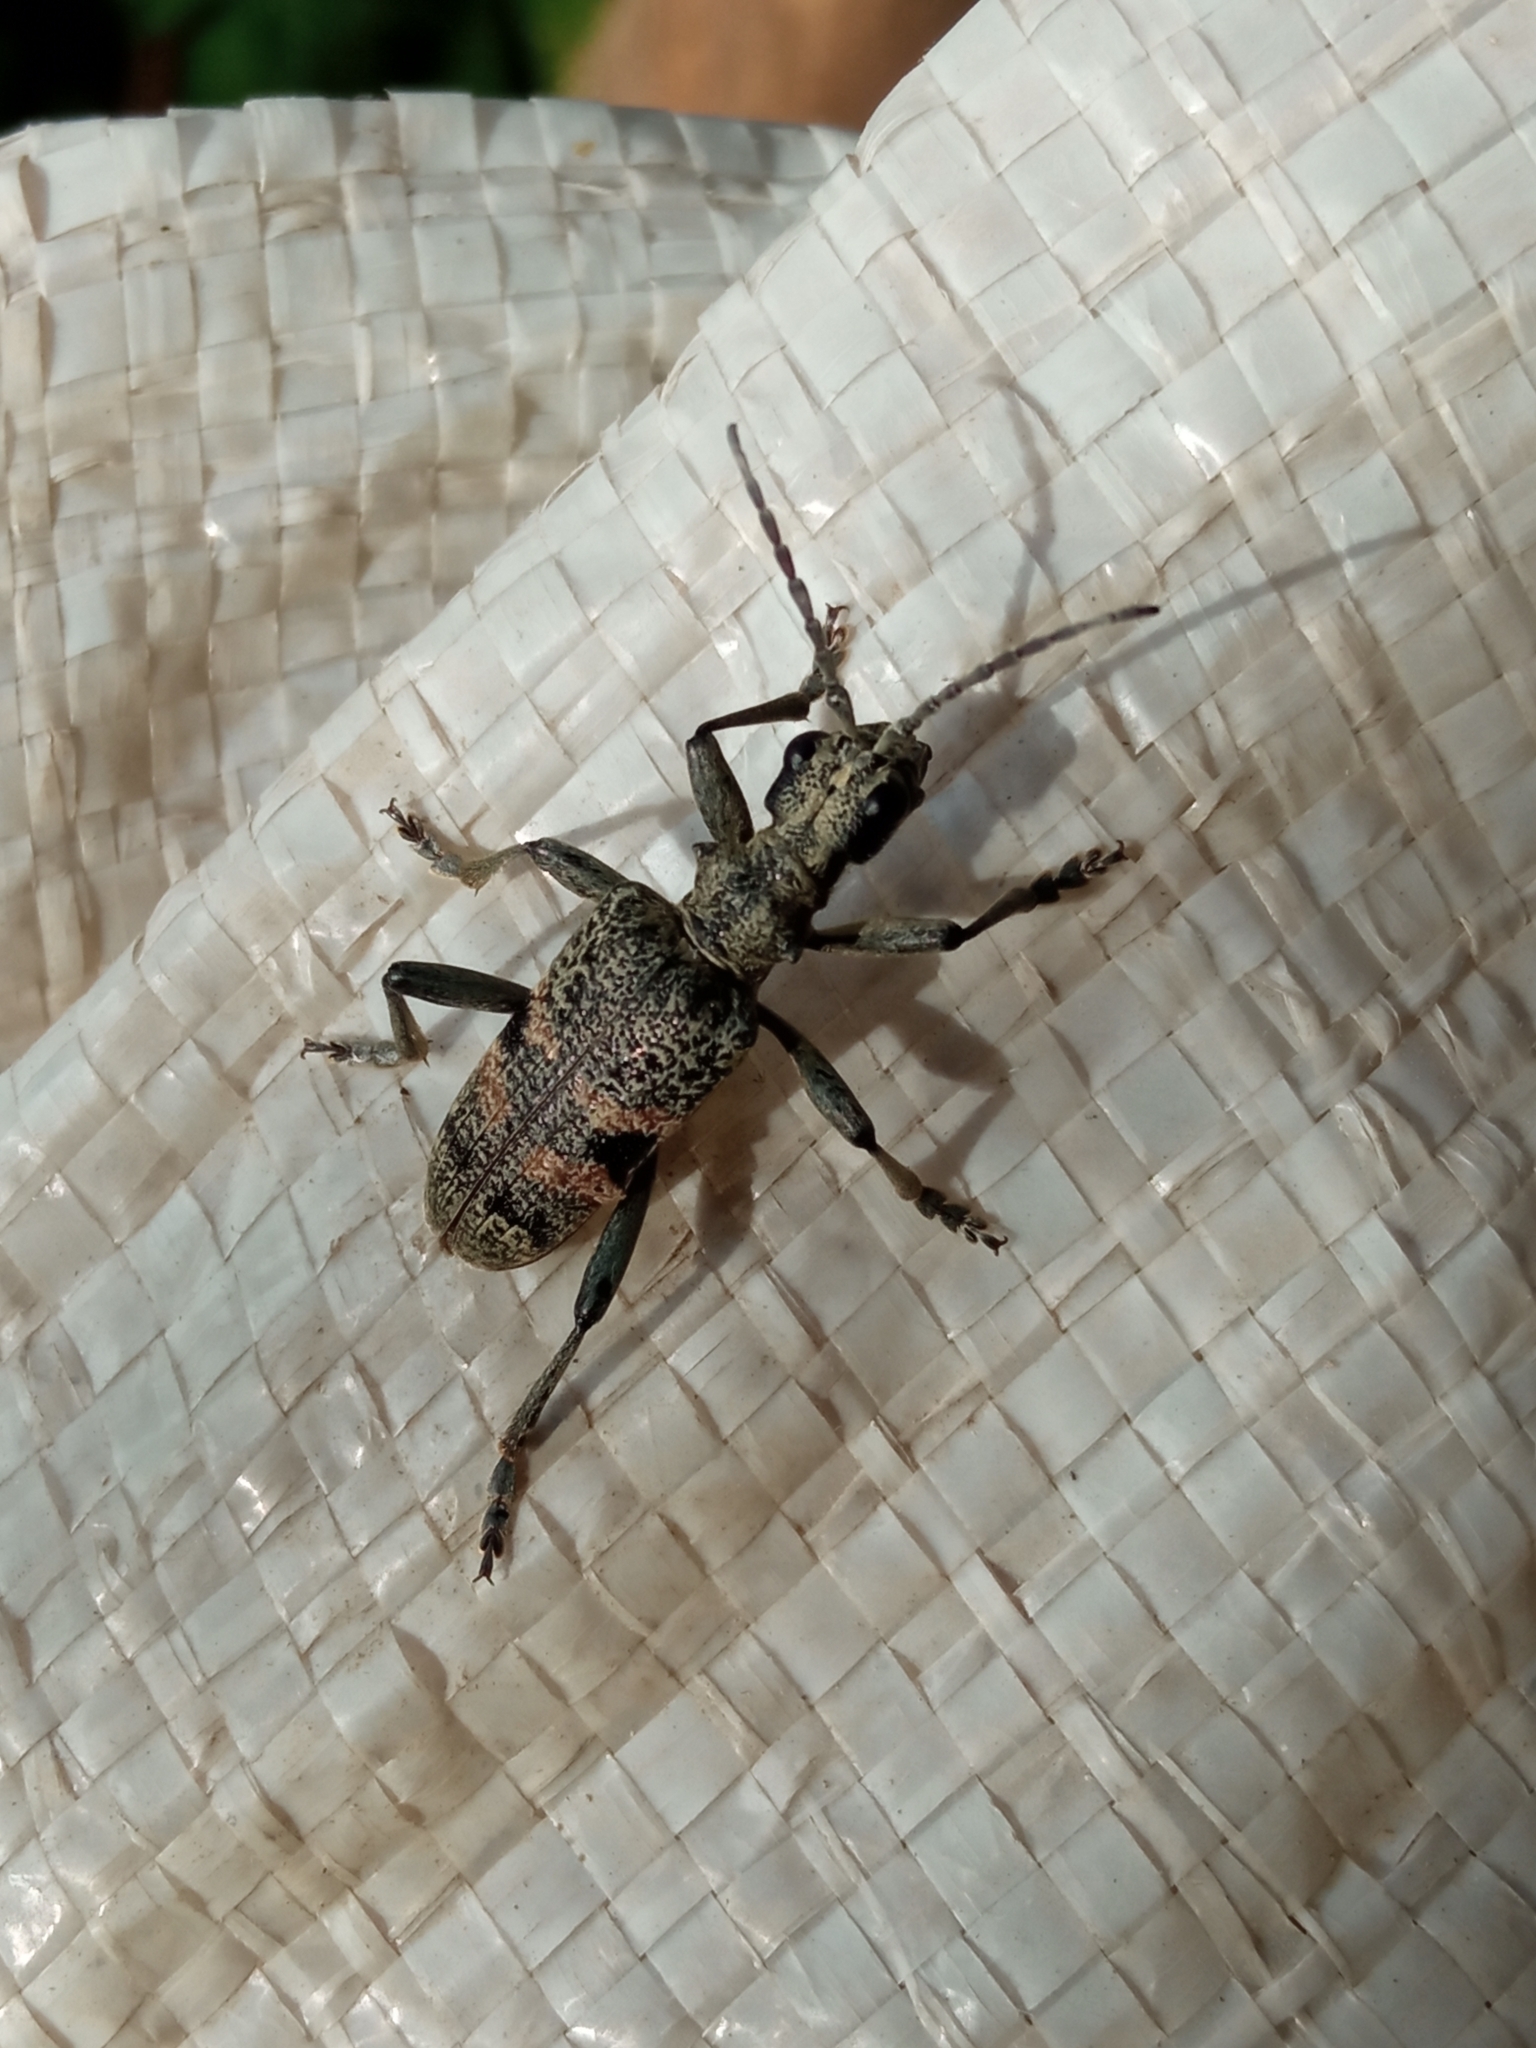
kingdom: Animalia
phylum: Arthropoda
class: Insecta
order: Coleoptera
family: Cerambycidae
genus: Rhagium
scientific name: Rhagium mordax
